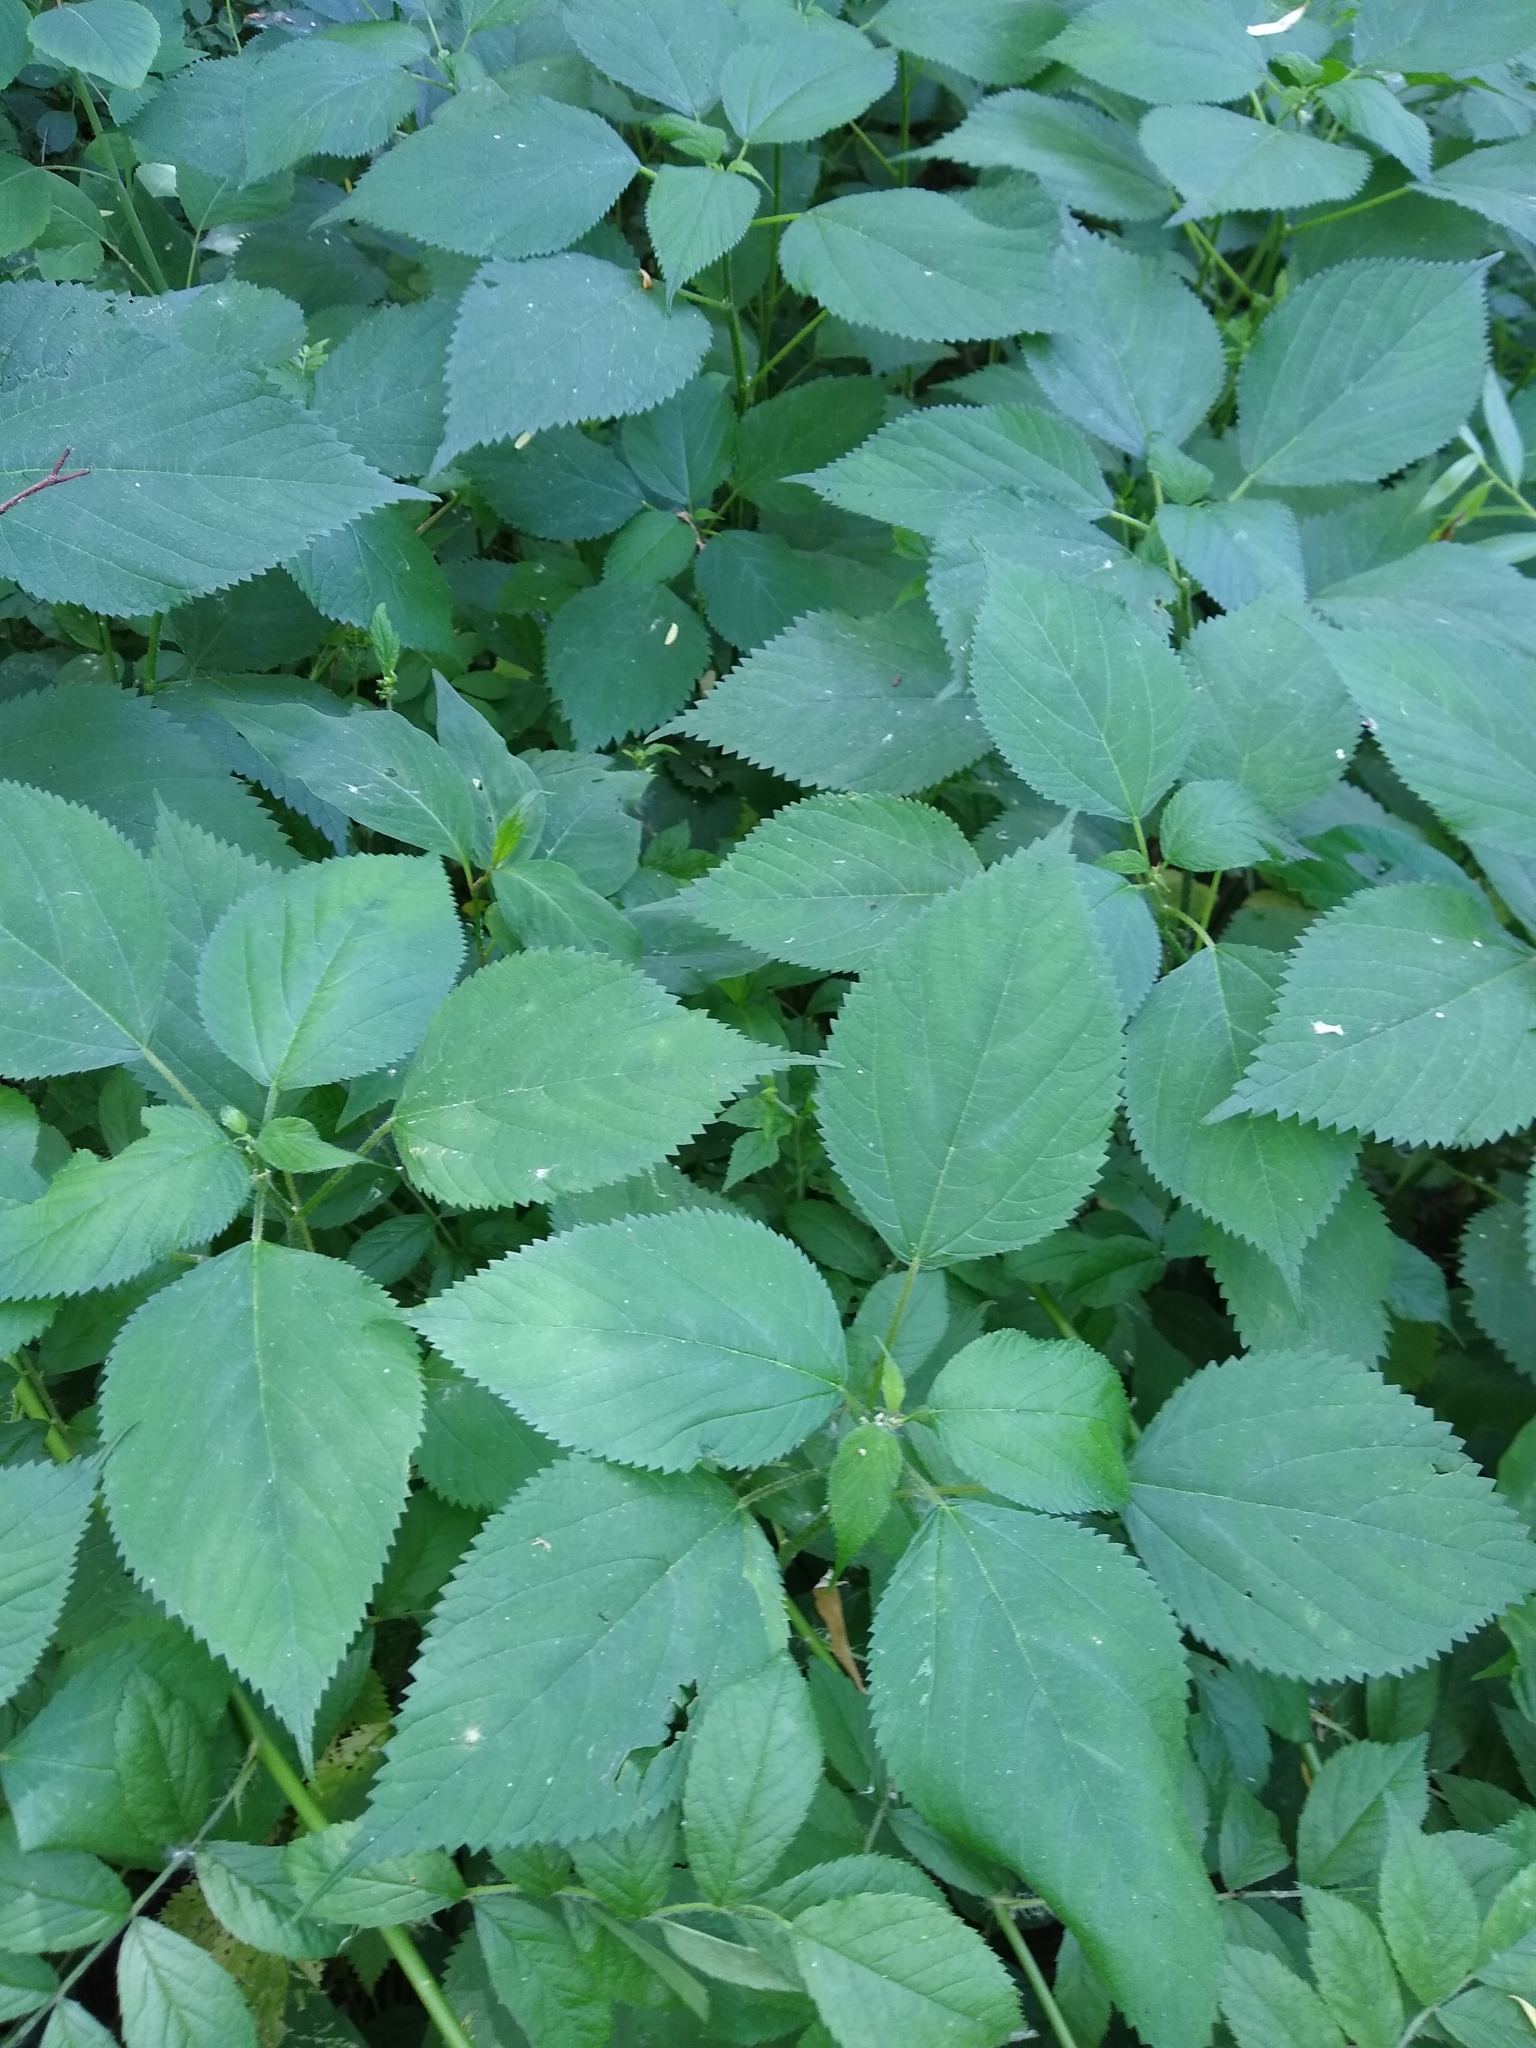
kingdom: Plantae
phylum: Tracheophyta
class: Magnoliopsida
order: Rosales
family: Urticaceae
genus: Laportea
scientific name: Laportea canadensis
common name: Canada nettle
